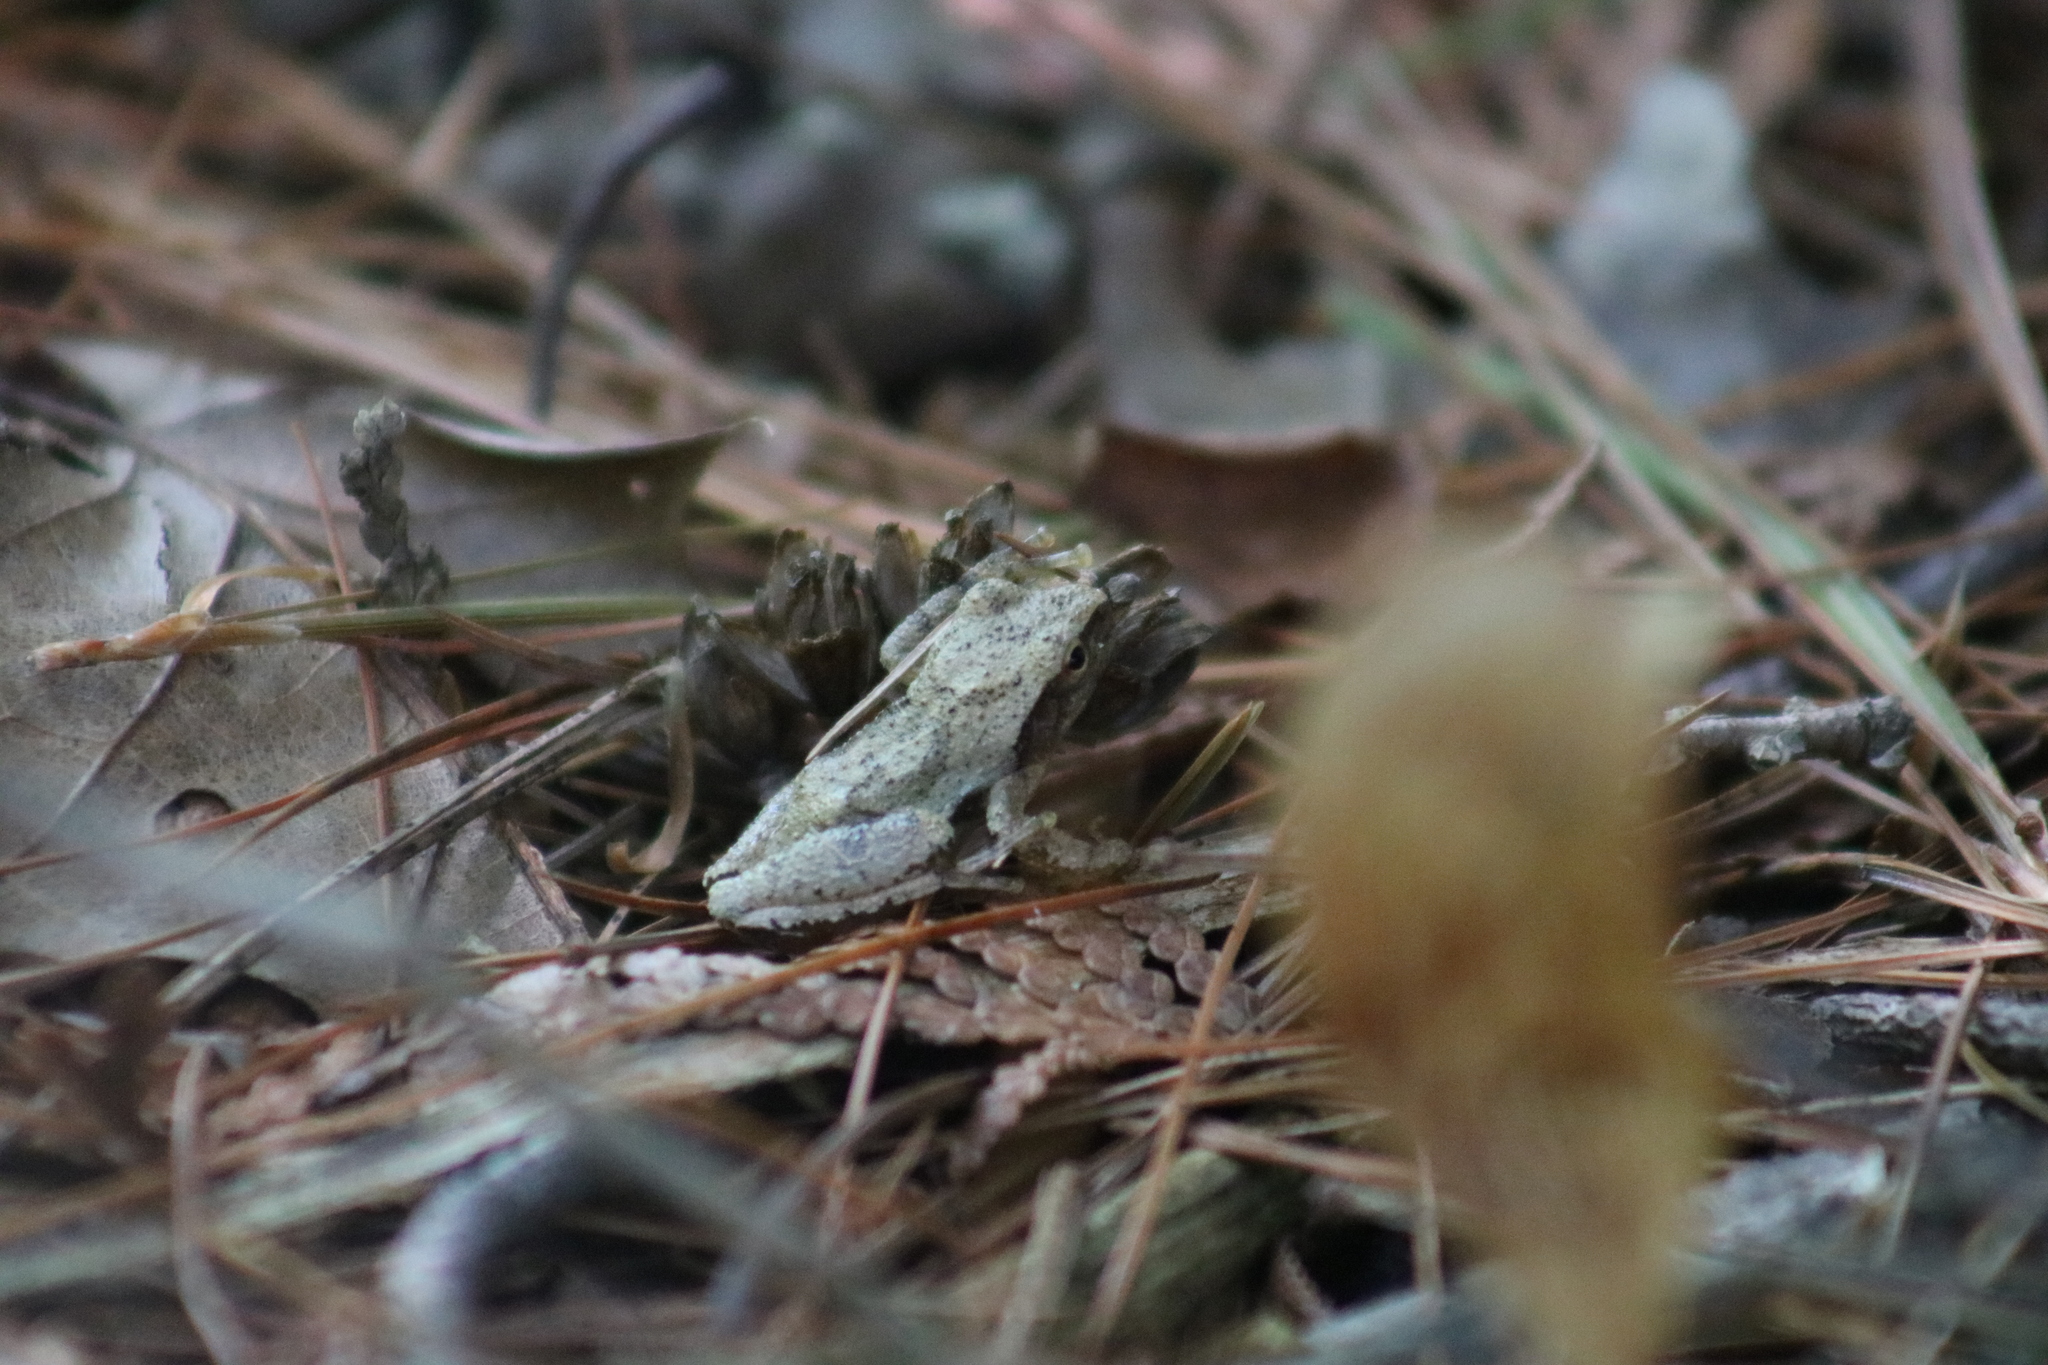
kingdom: Animalia
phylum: Chordata
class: Amphibia
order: Anura
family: Hylidae
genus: Pseudacris
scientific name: Pseudacris crucifer
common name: Spring peeper
